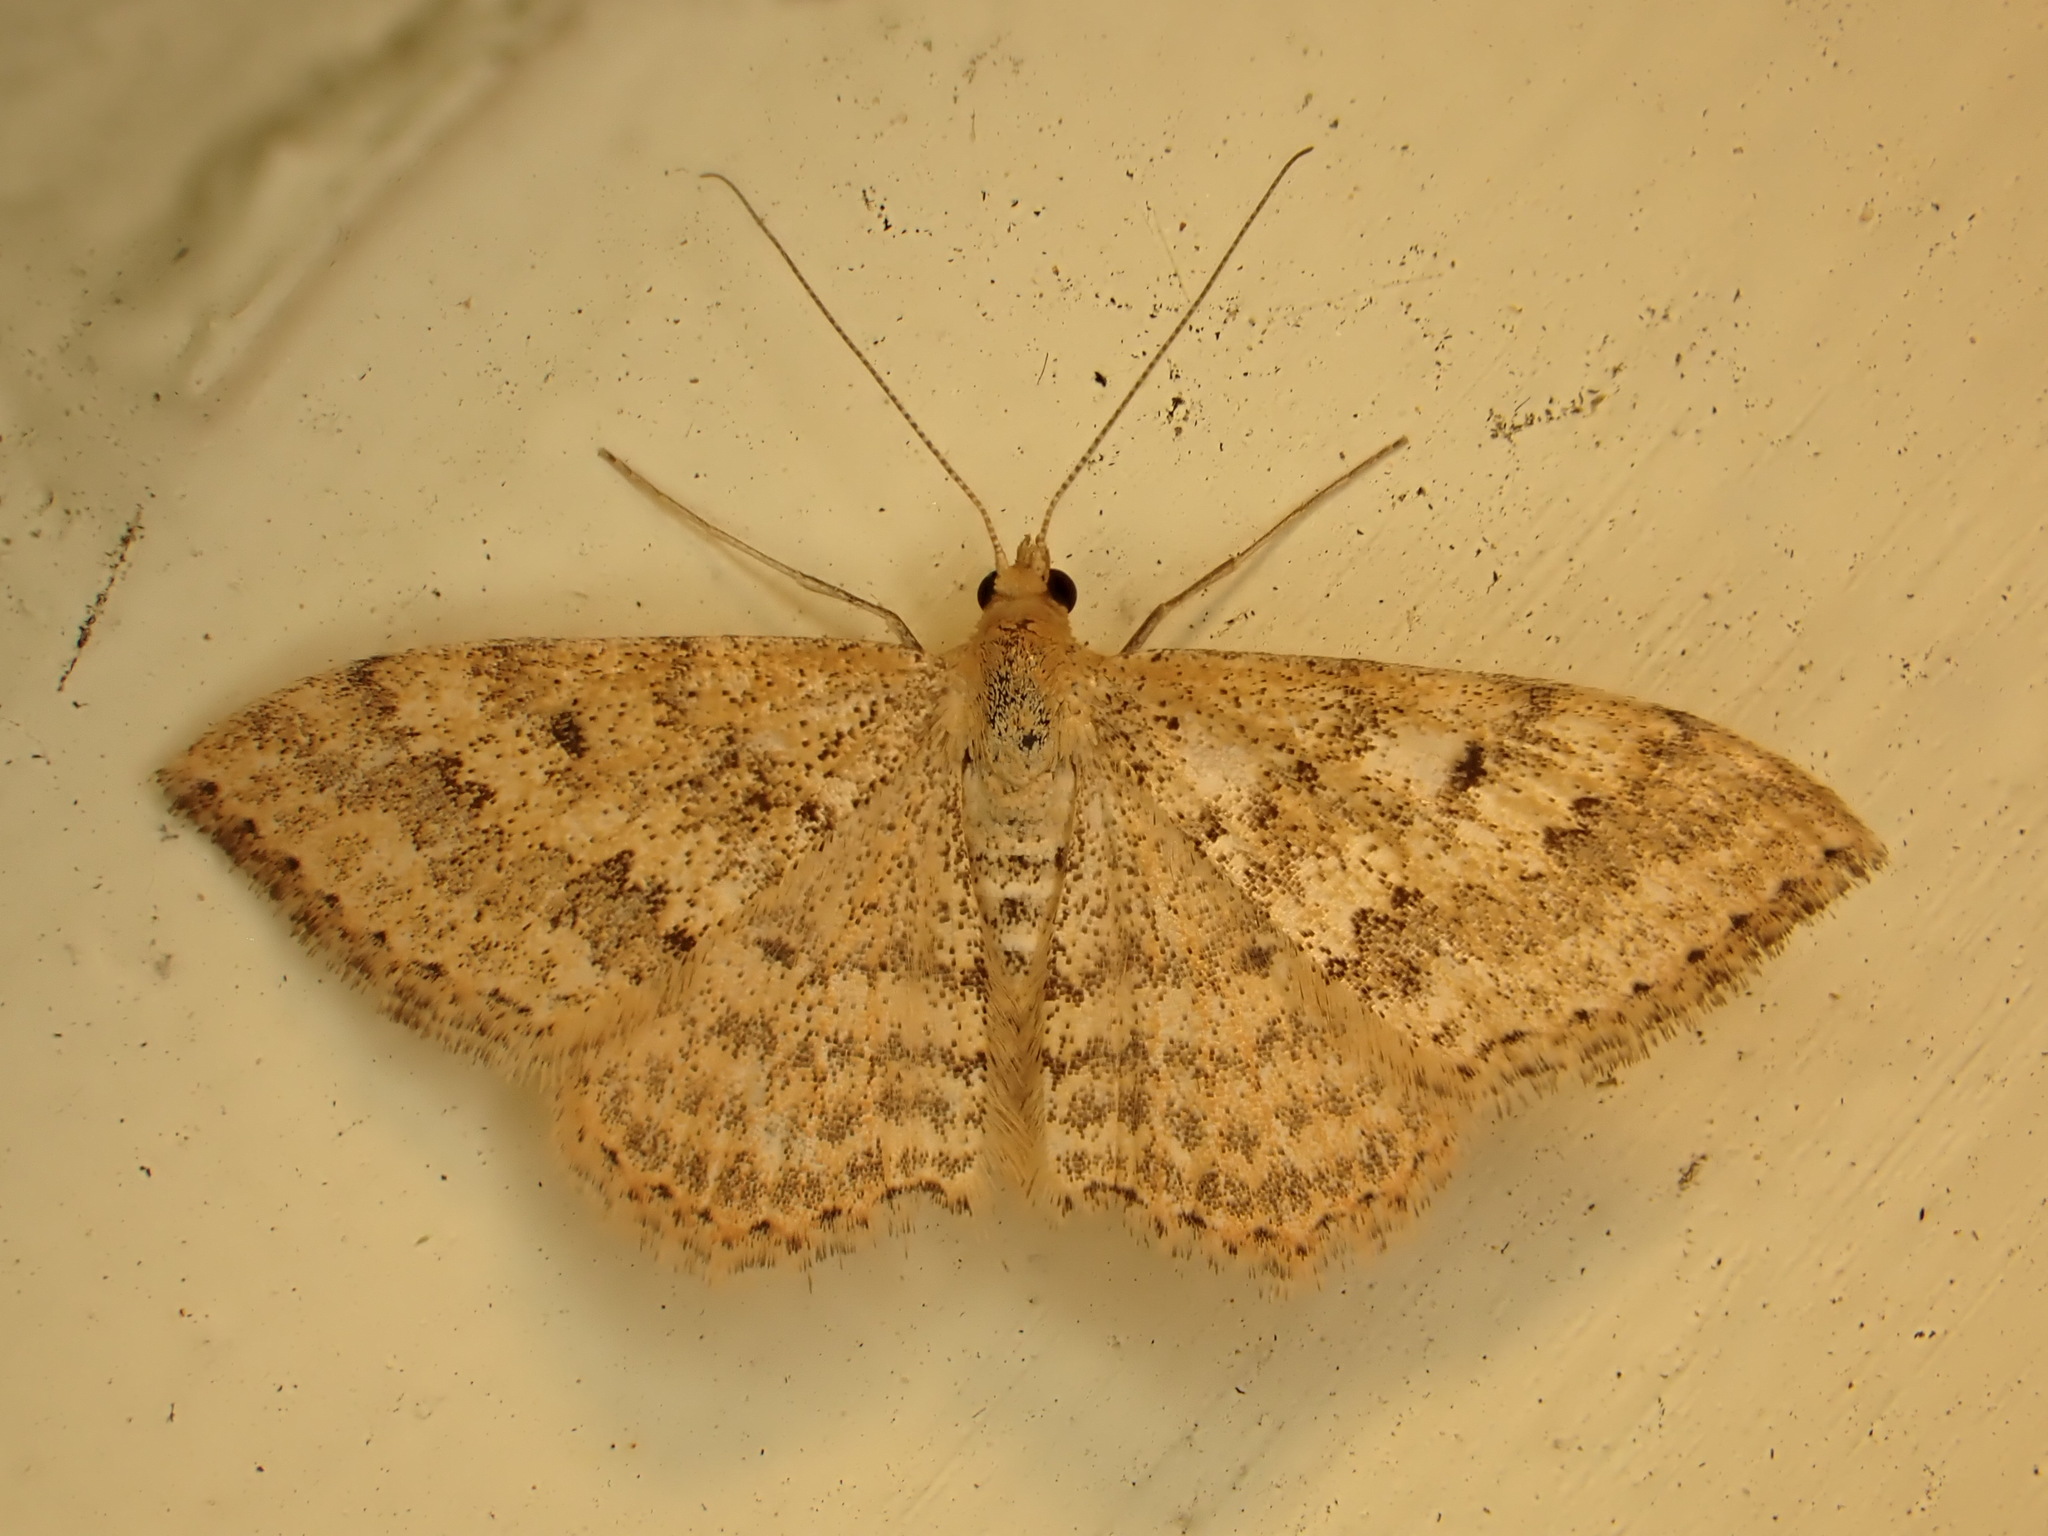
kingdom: Animalia
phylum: Arthropoda
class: Insecta
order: Lepidoptera
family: Geometridae
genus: Scopula
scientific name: Scopula rubraria
